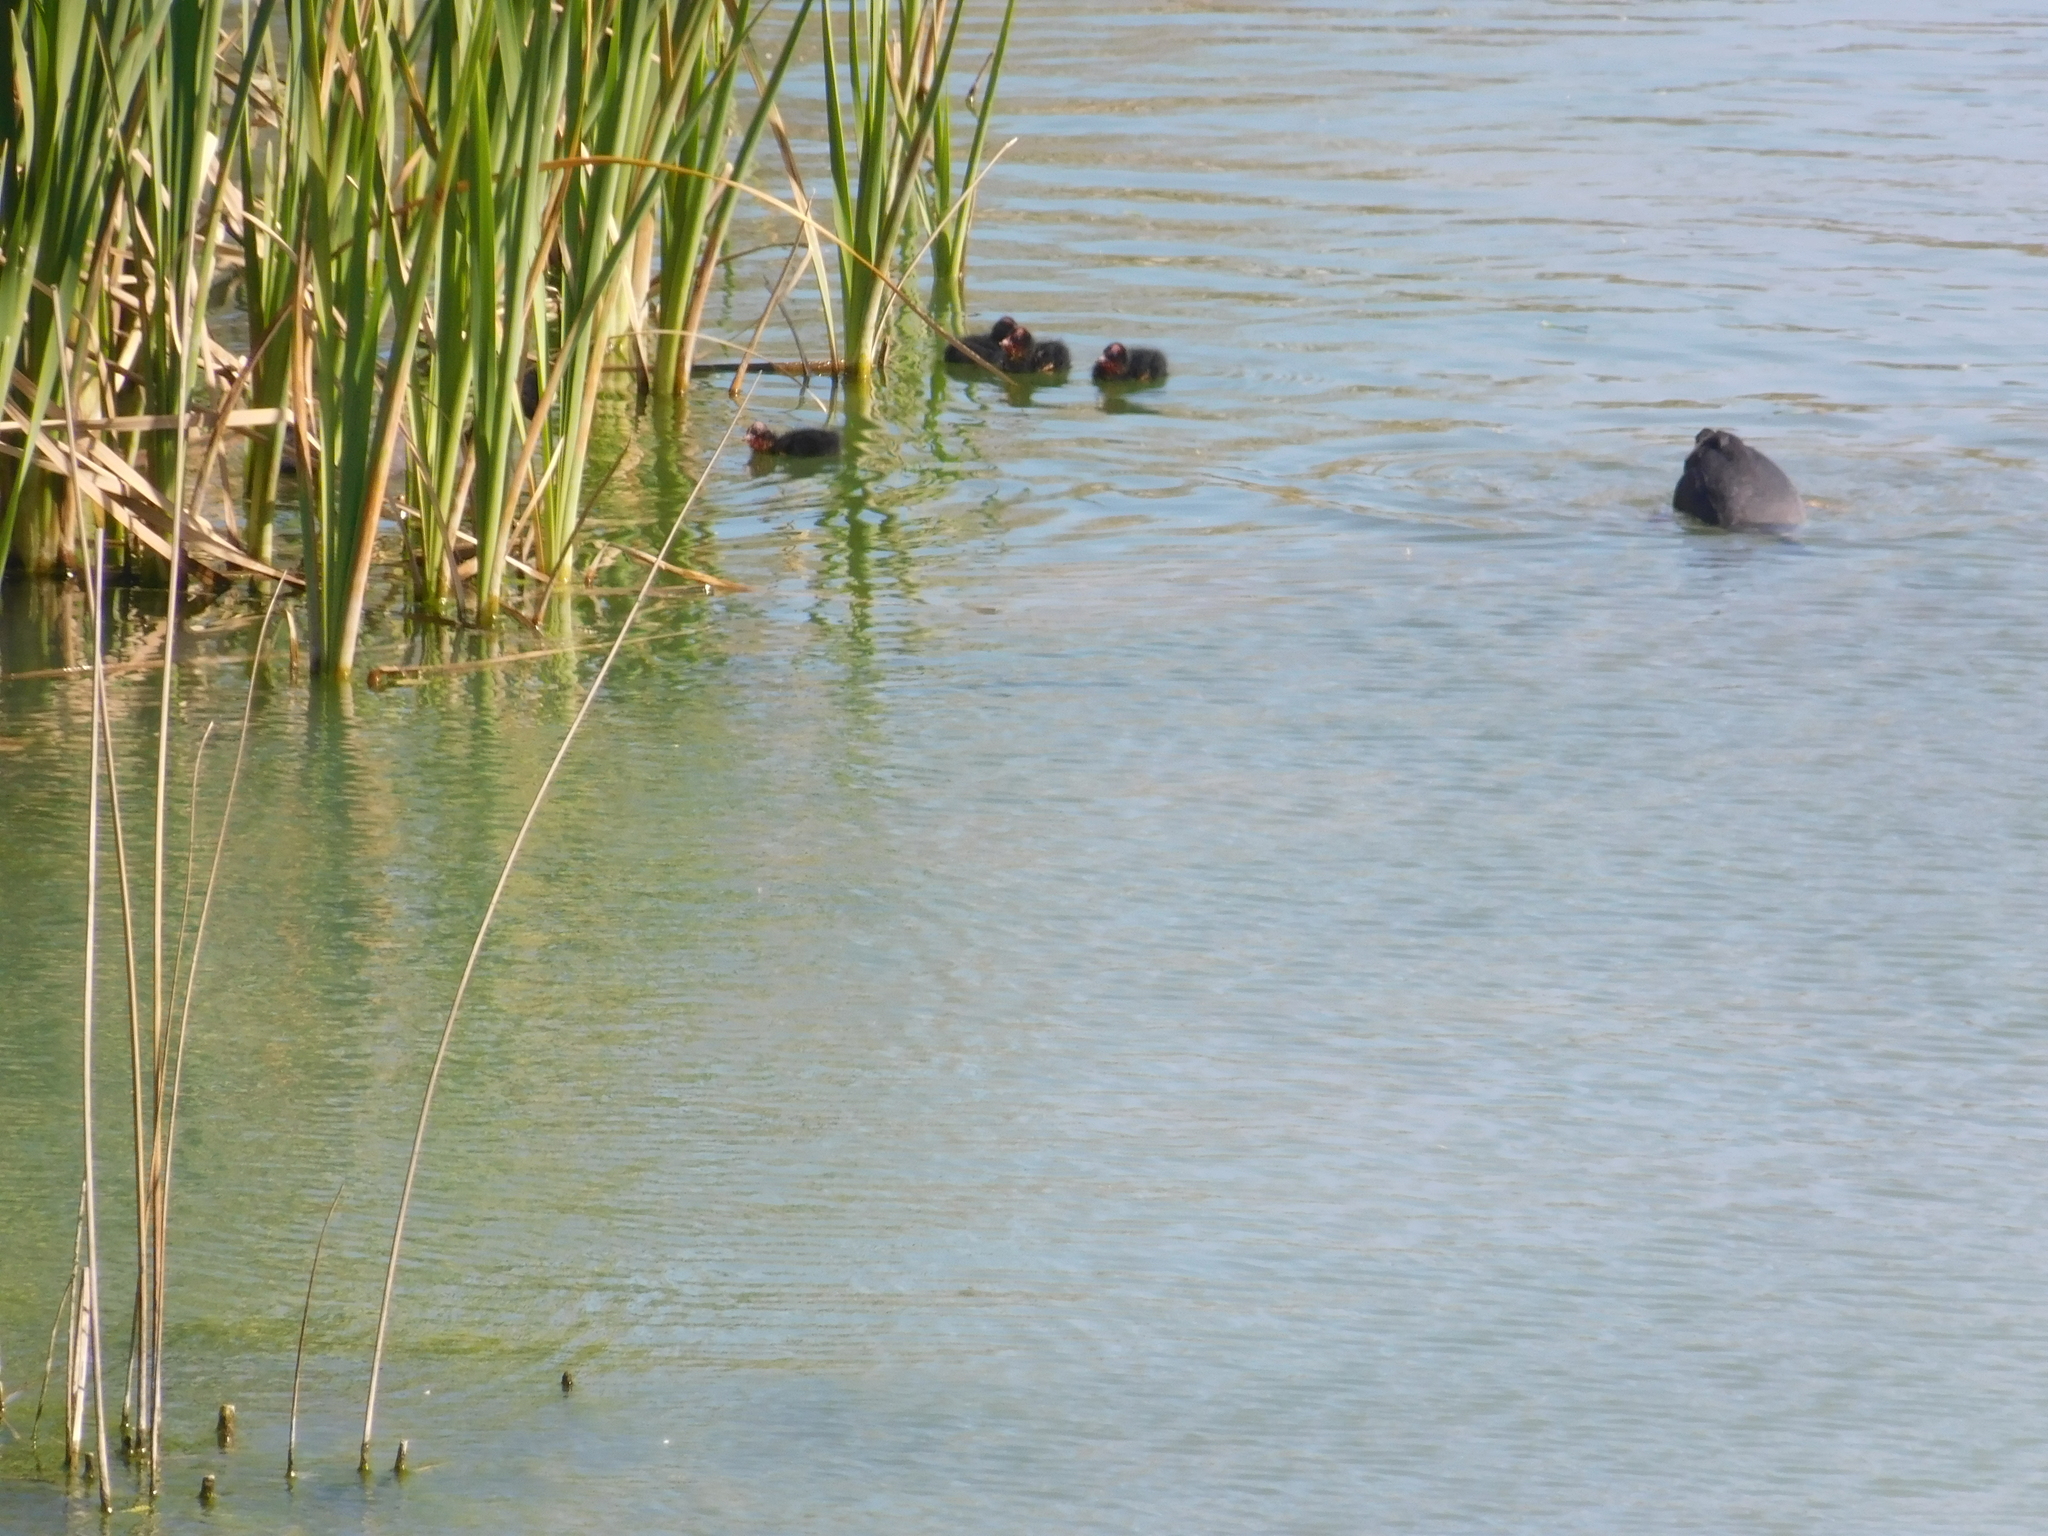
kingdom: Animalia
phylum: Chordata
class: Aves
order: Gruiformes
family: Rallidae
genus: Fulica
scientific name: Fulica armillata
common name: Red-gartered coot
